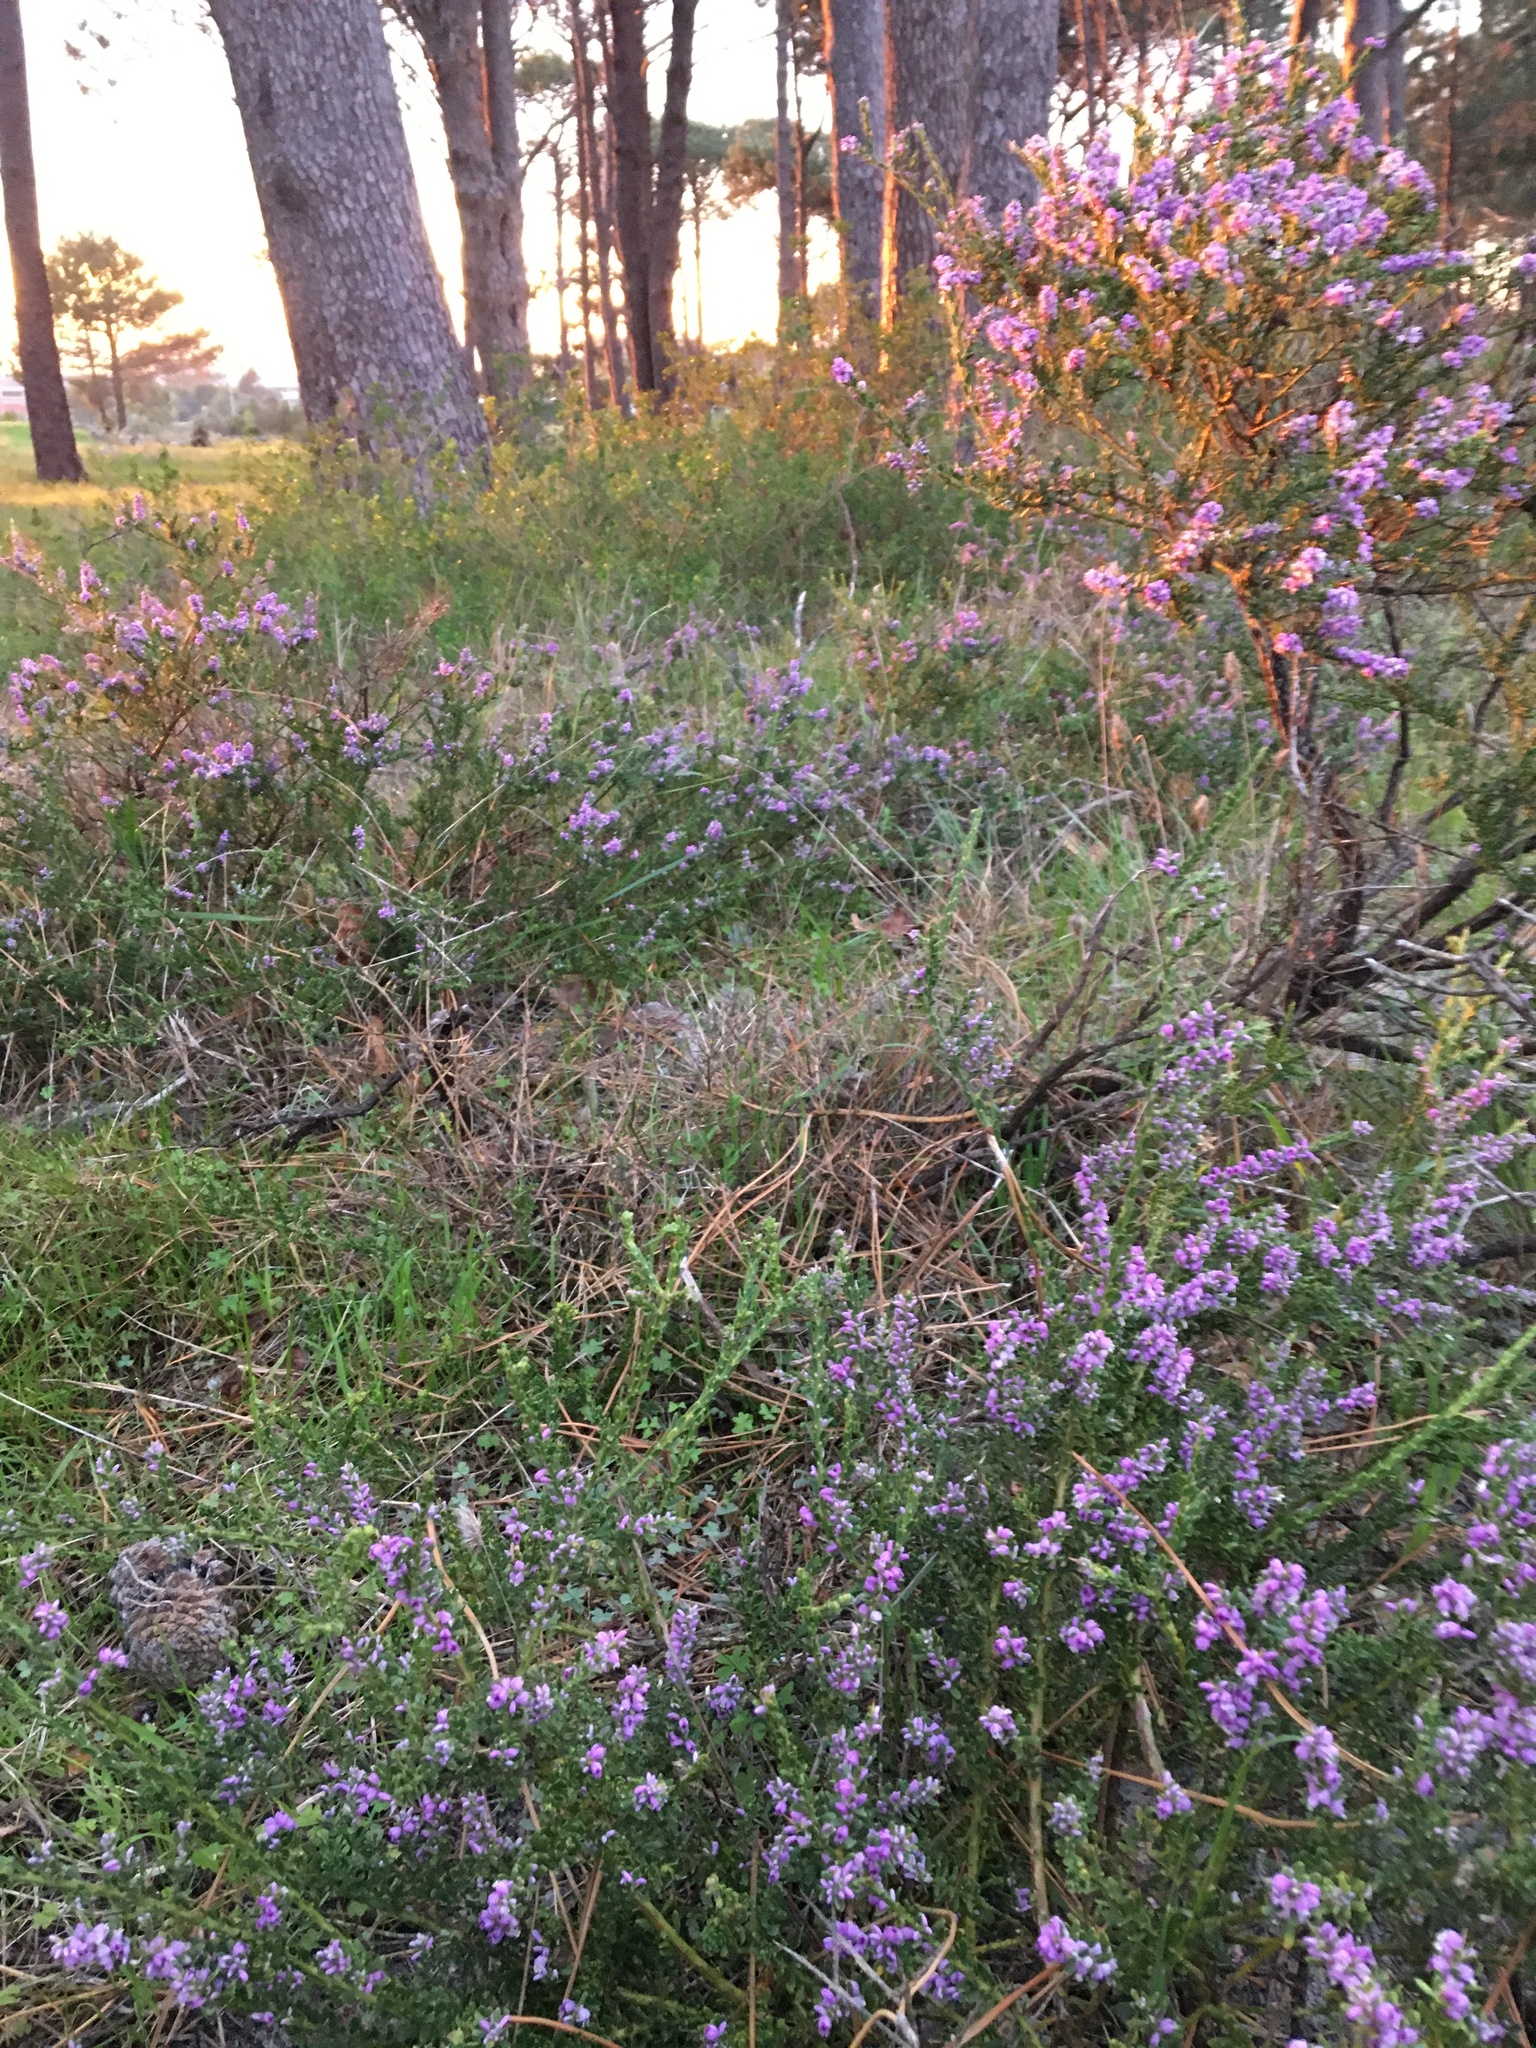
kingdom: Plantae
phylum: Tracheophyta
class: Magnoliopsida
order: Fabales
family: Polygalaceae
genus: Muraltia
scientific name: Muraltia spinosa
